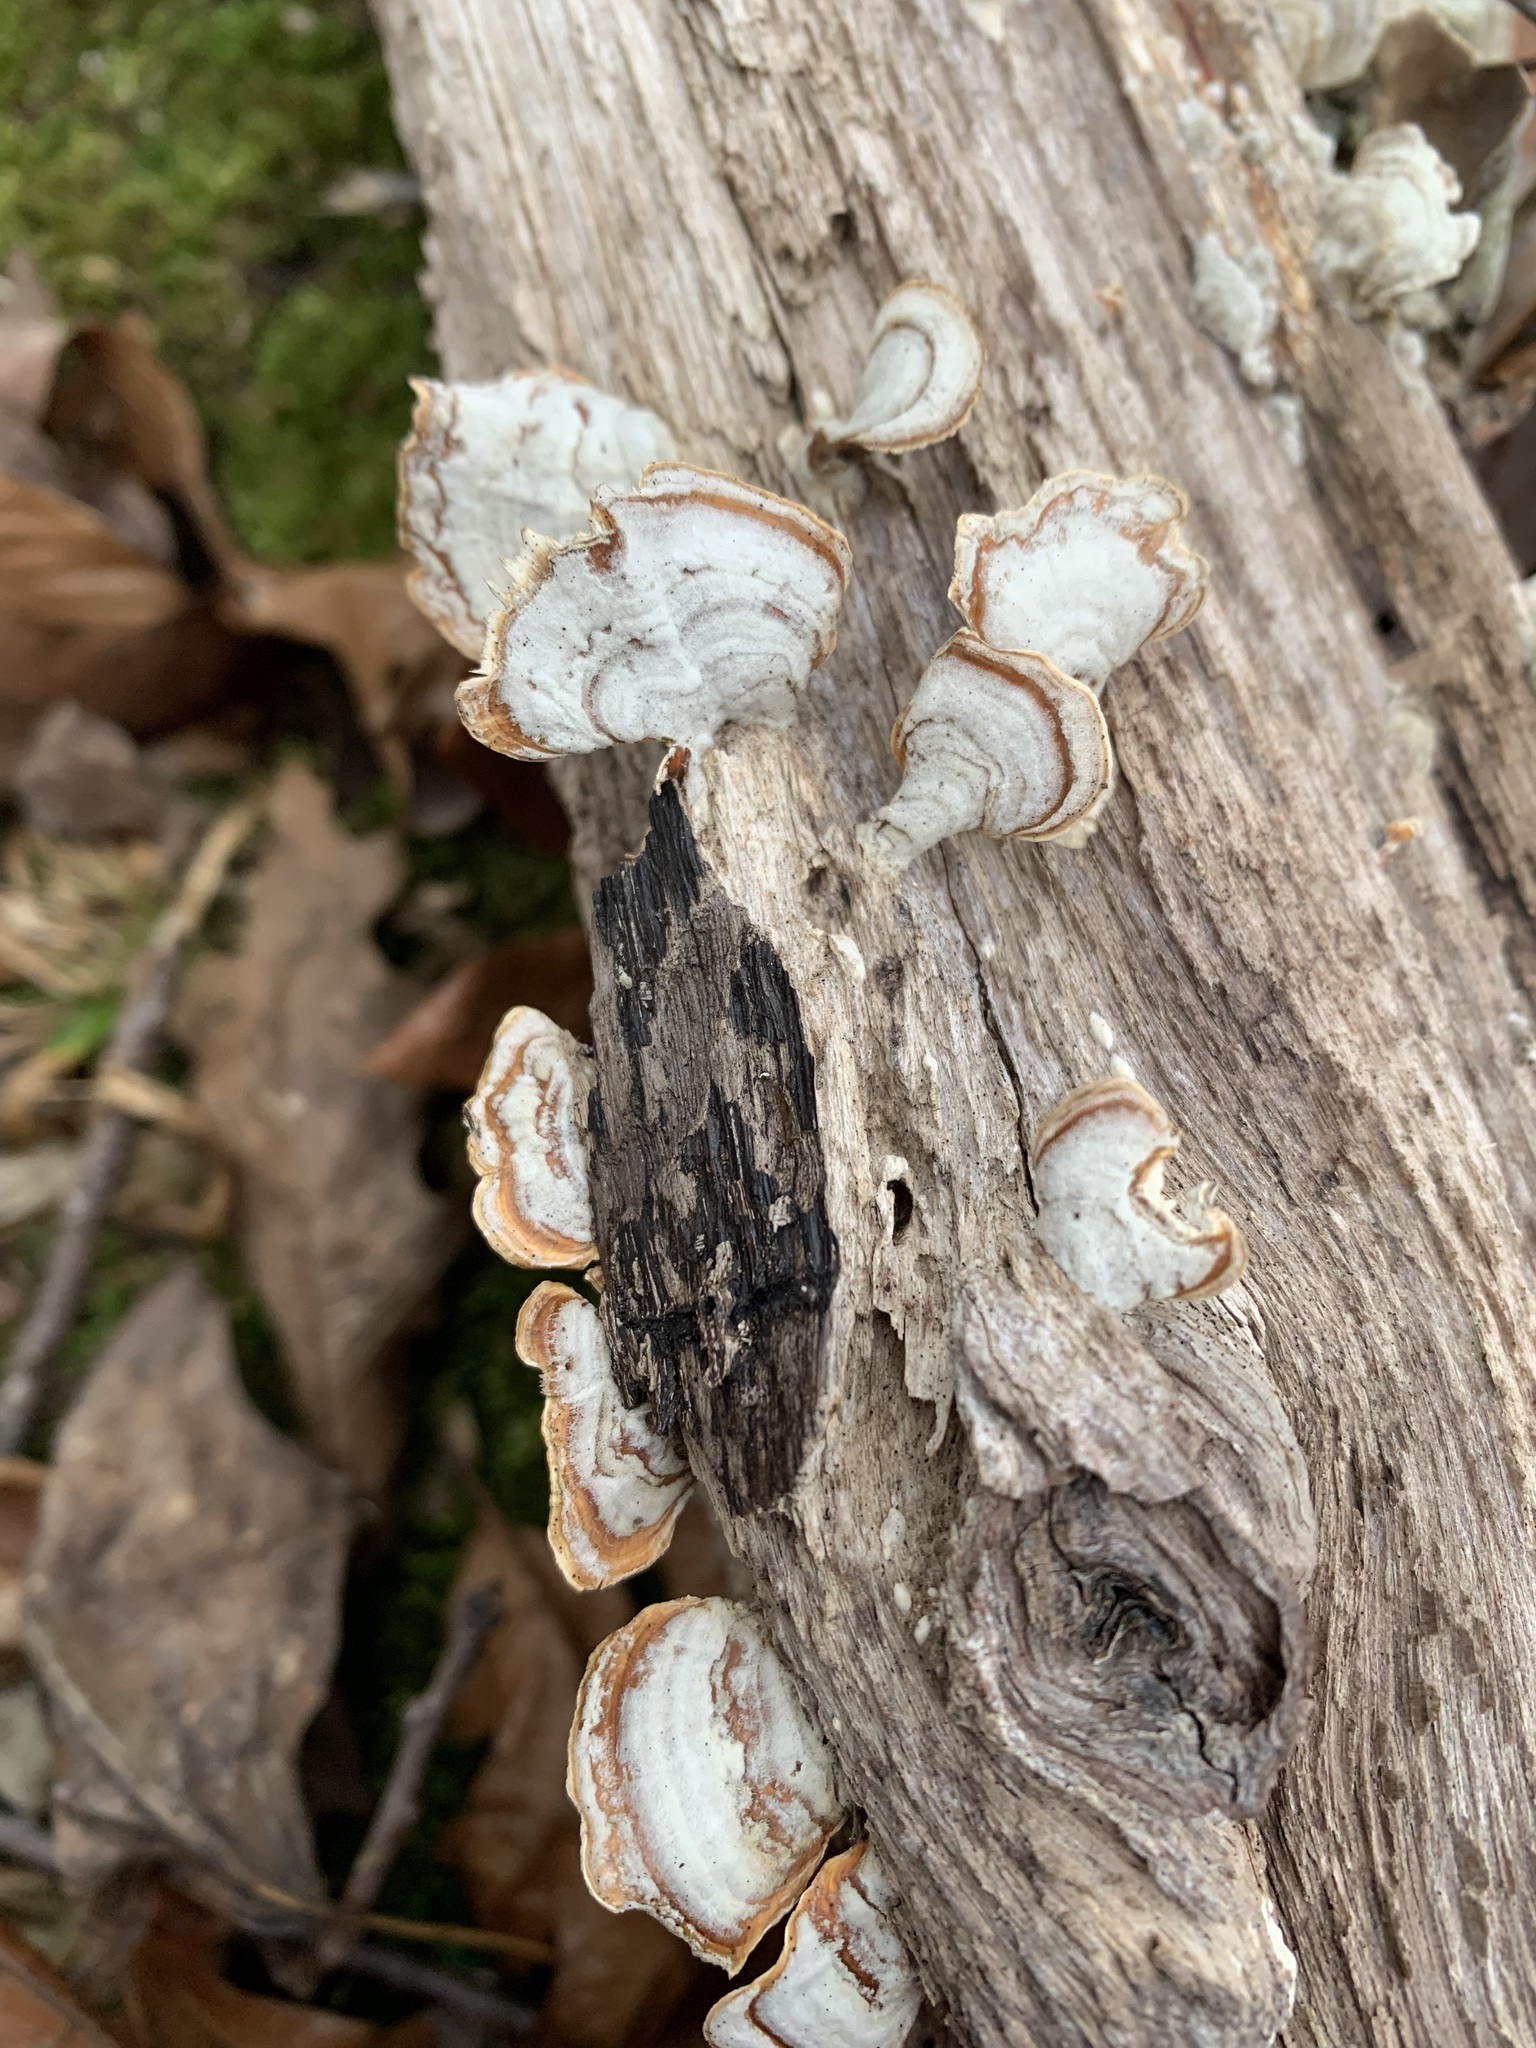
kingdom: Fungi
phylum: Basidiomycota
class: Agaricomycetes
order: Russulales
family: Stereaceae
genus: Stereum
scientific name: Stereum lobatum
